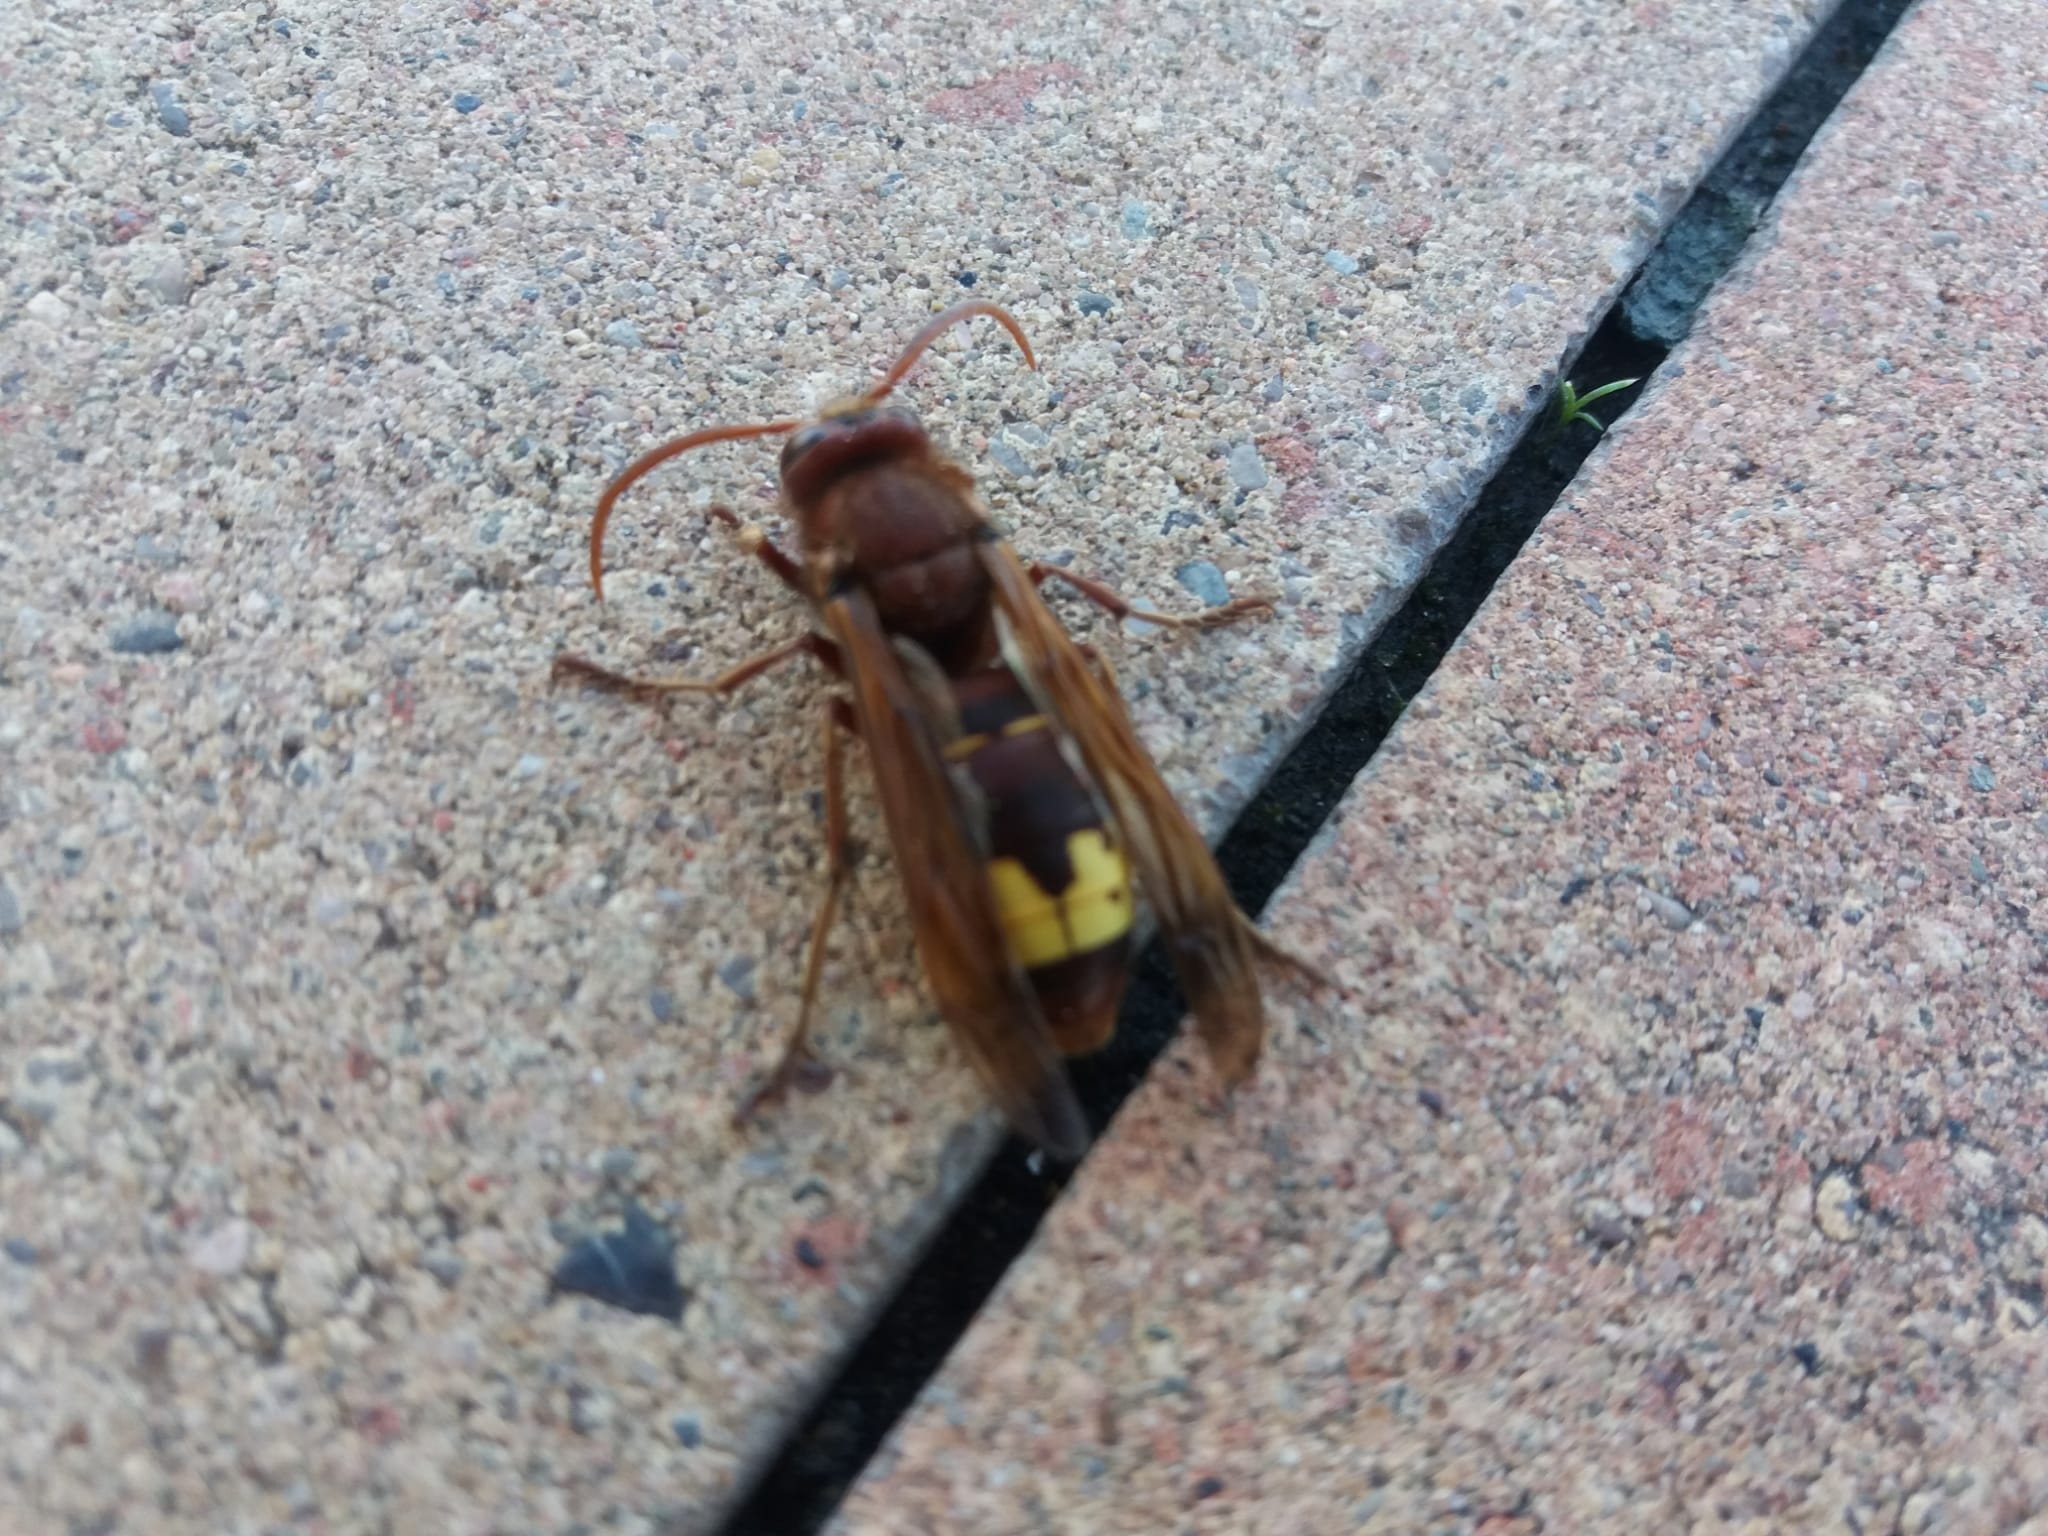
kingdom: Animalia
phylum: Arthropoda
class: Insecta
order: Hymenoptera
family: Vespidae
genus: Vespa
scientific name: Vespa orientalis
